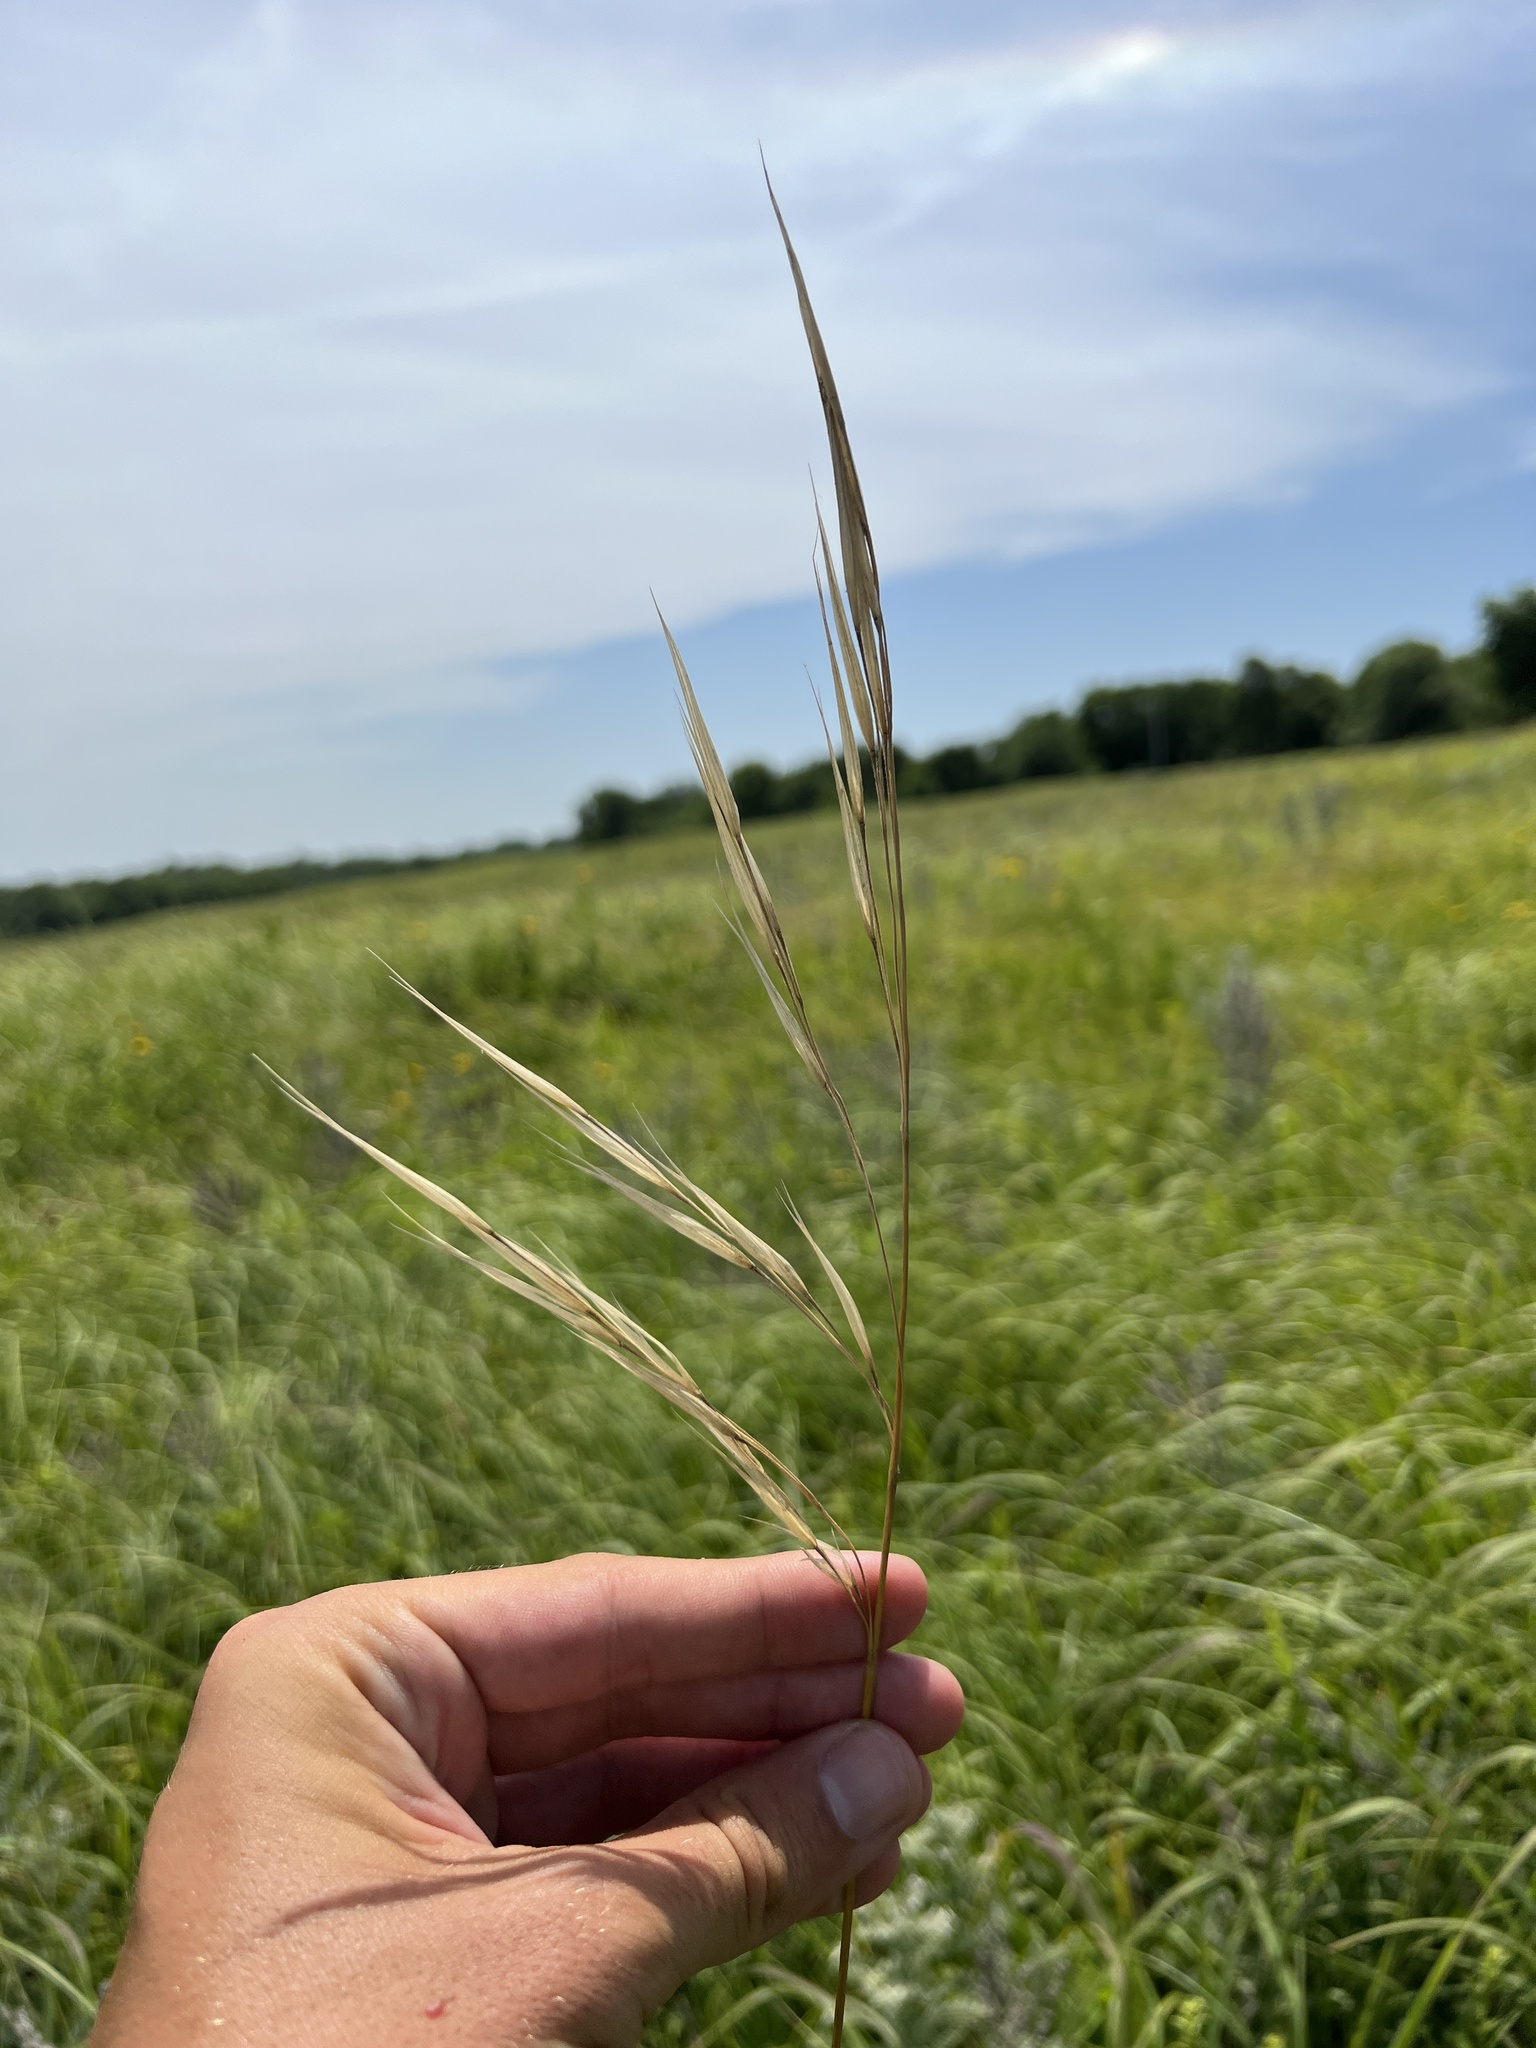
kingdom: Plantae
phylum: Tracheophyta
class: Liliopsida
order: Poales
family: Poaceae
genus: Hesperostipa
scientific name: Hesperostipa spartea
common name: Porcupine grass
